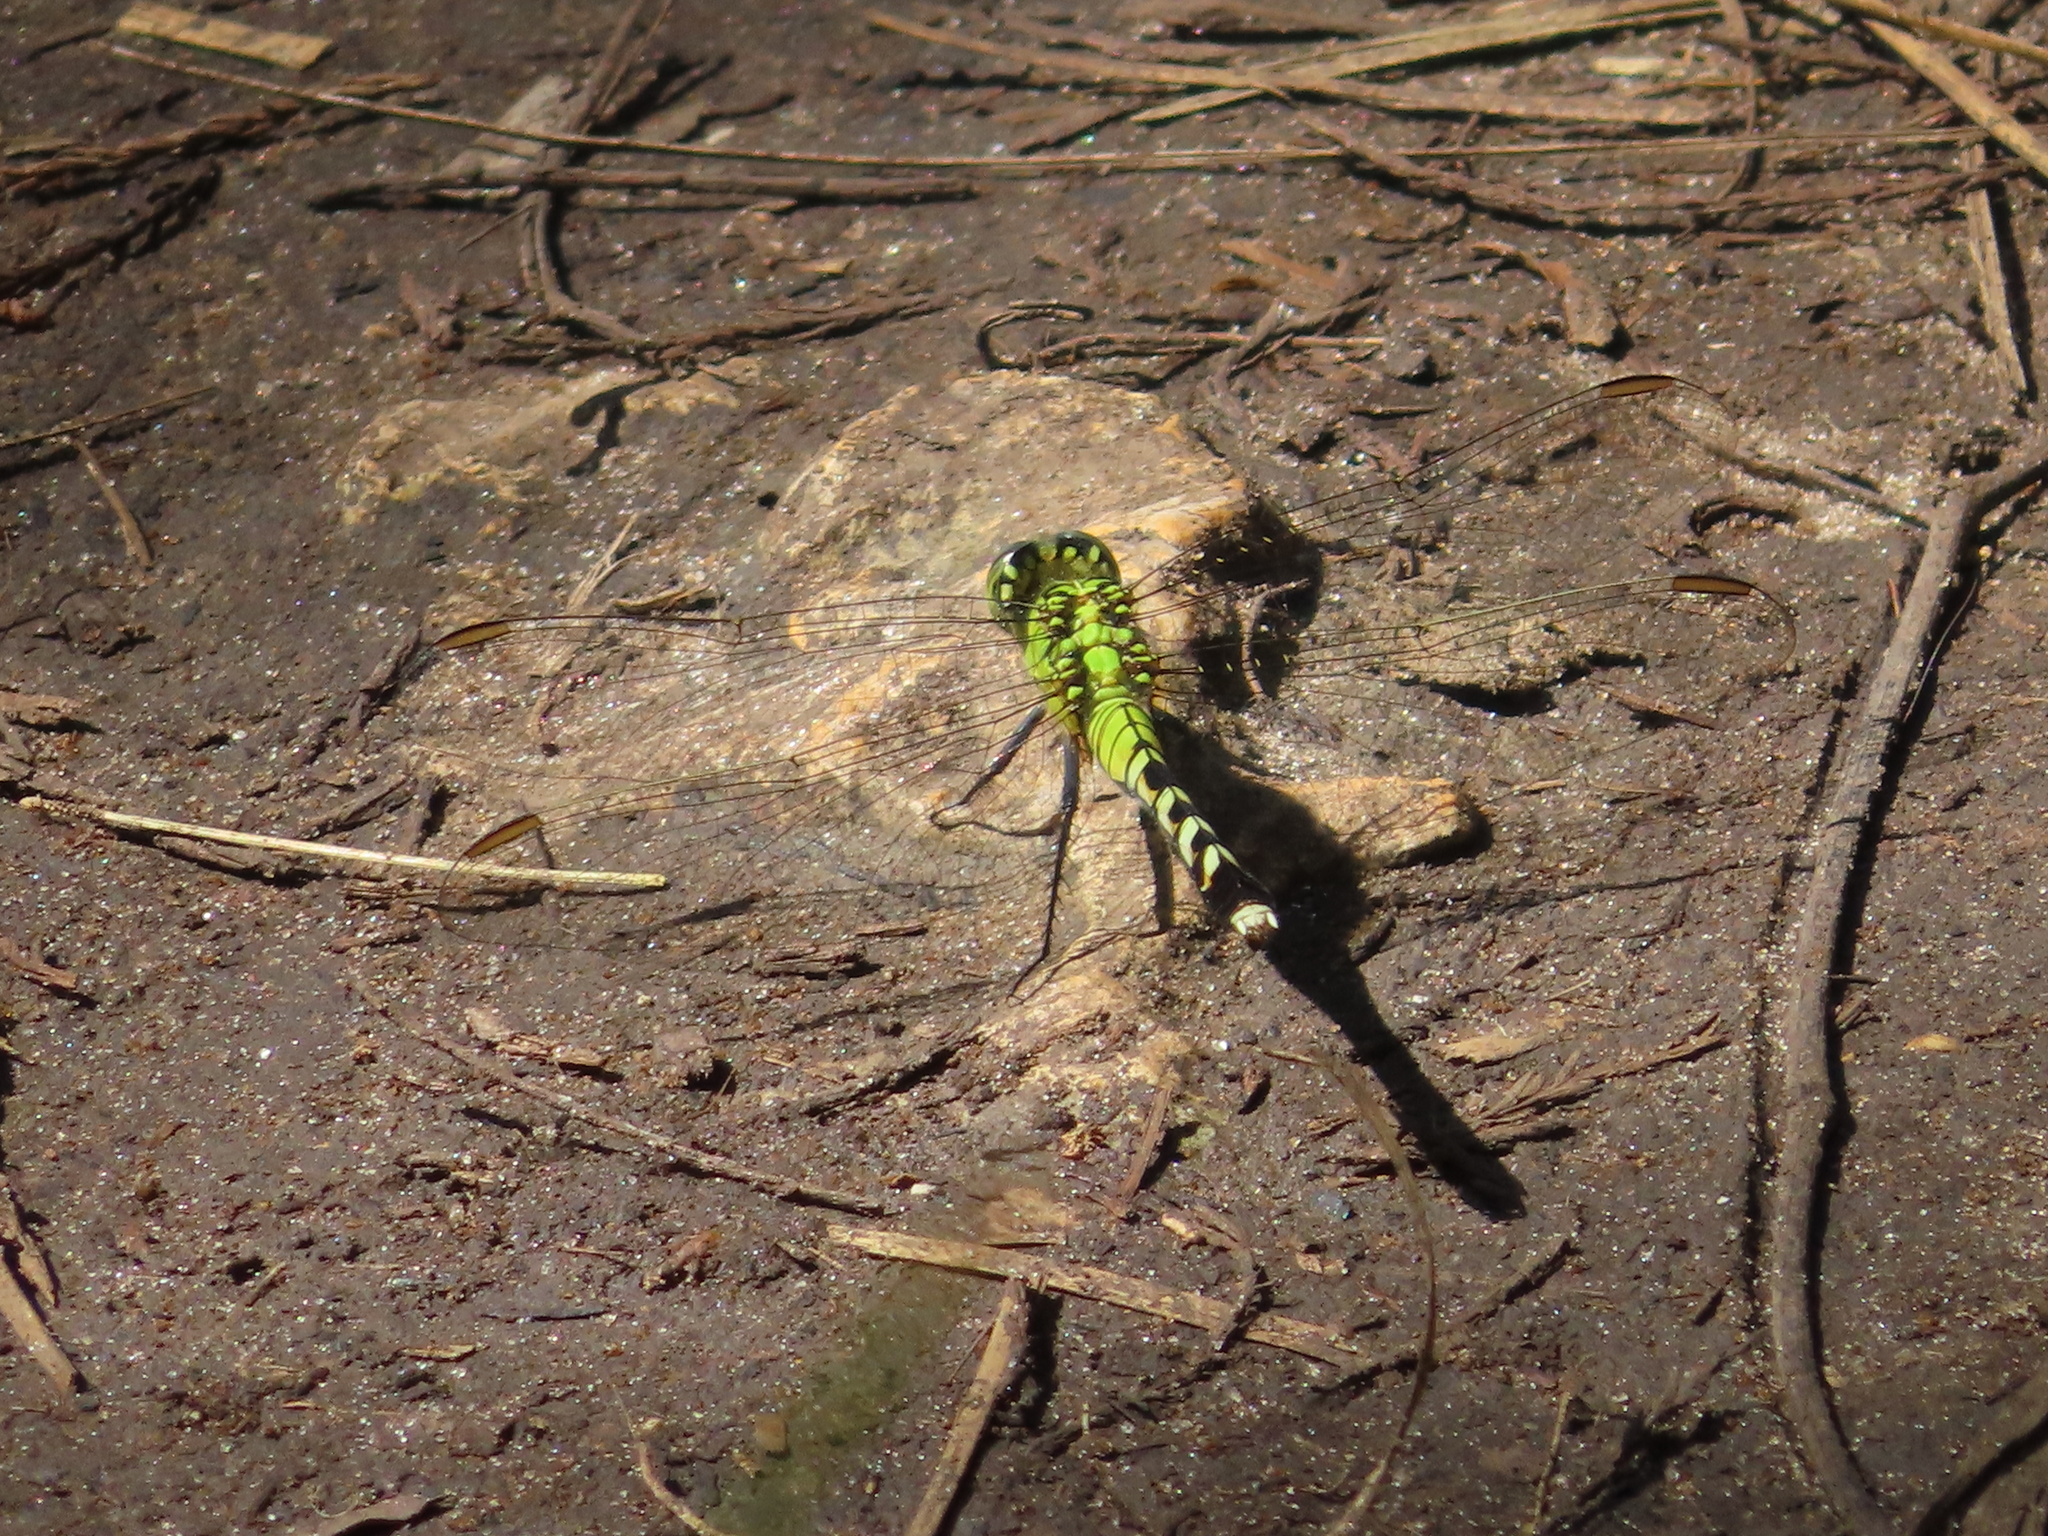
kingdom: Animalia
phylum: Arthropoda
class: Insecta
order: Odonata
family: Libellulidae
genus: Erythemis
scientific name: Erythemis simplicicollis
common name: Eastern pondhawk
